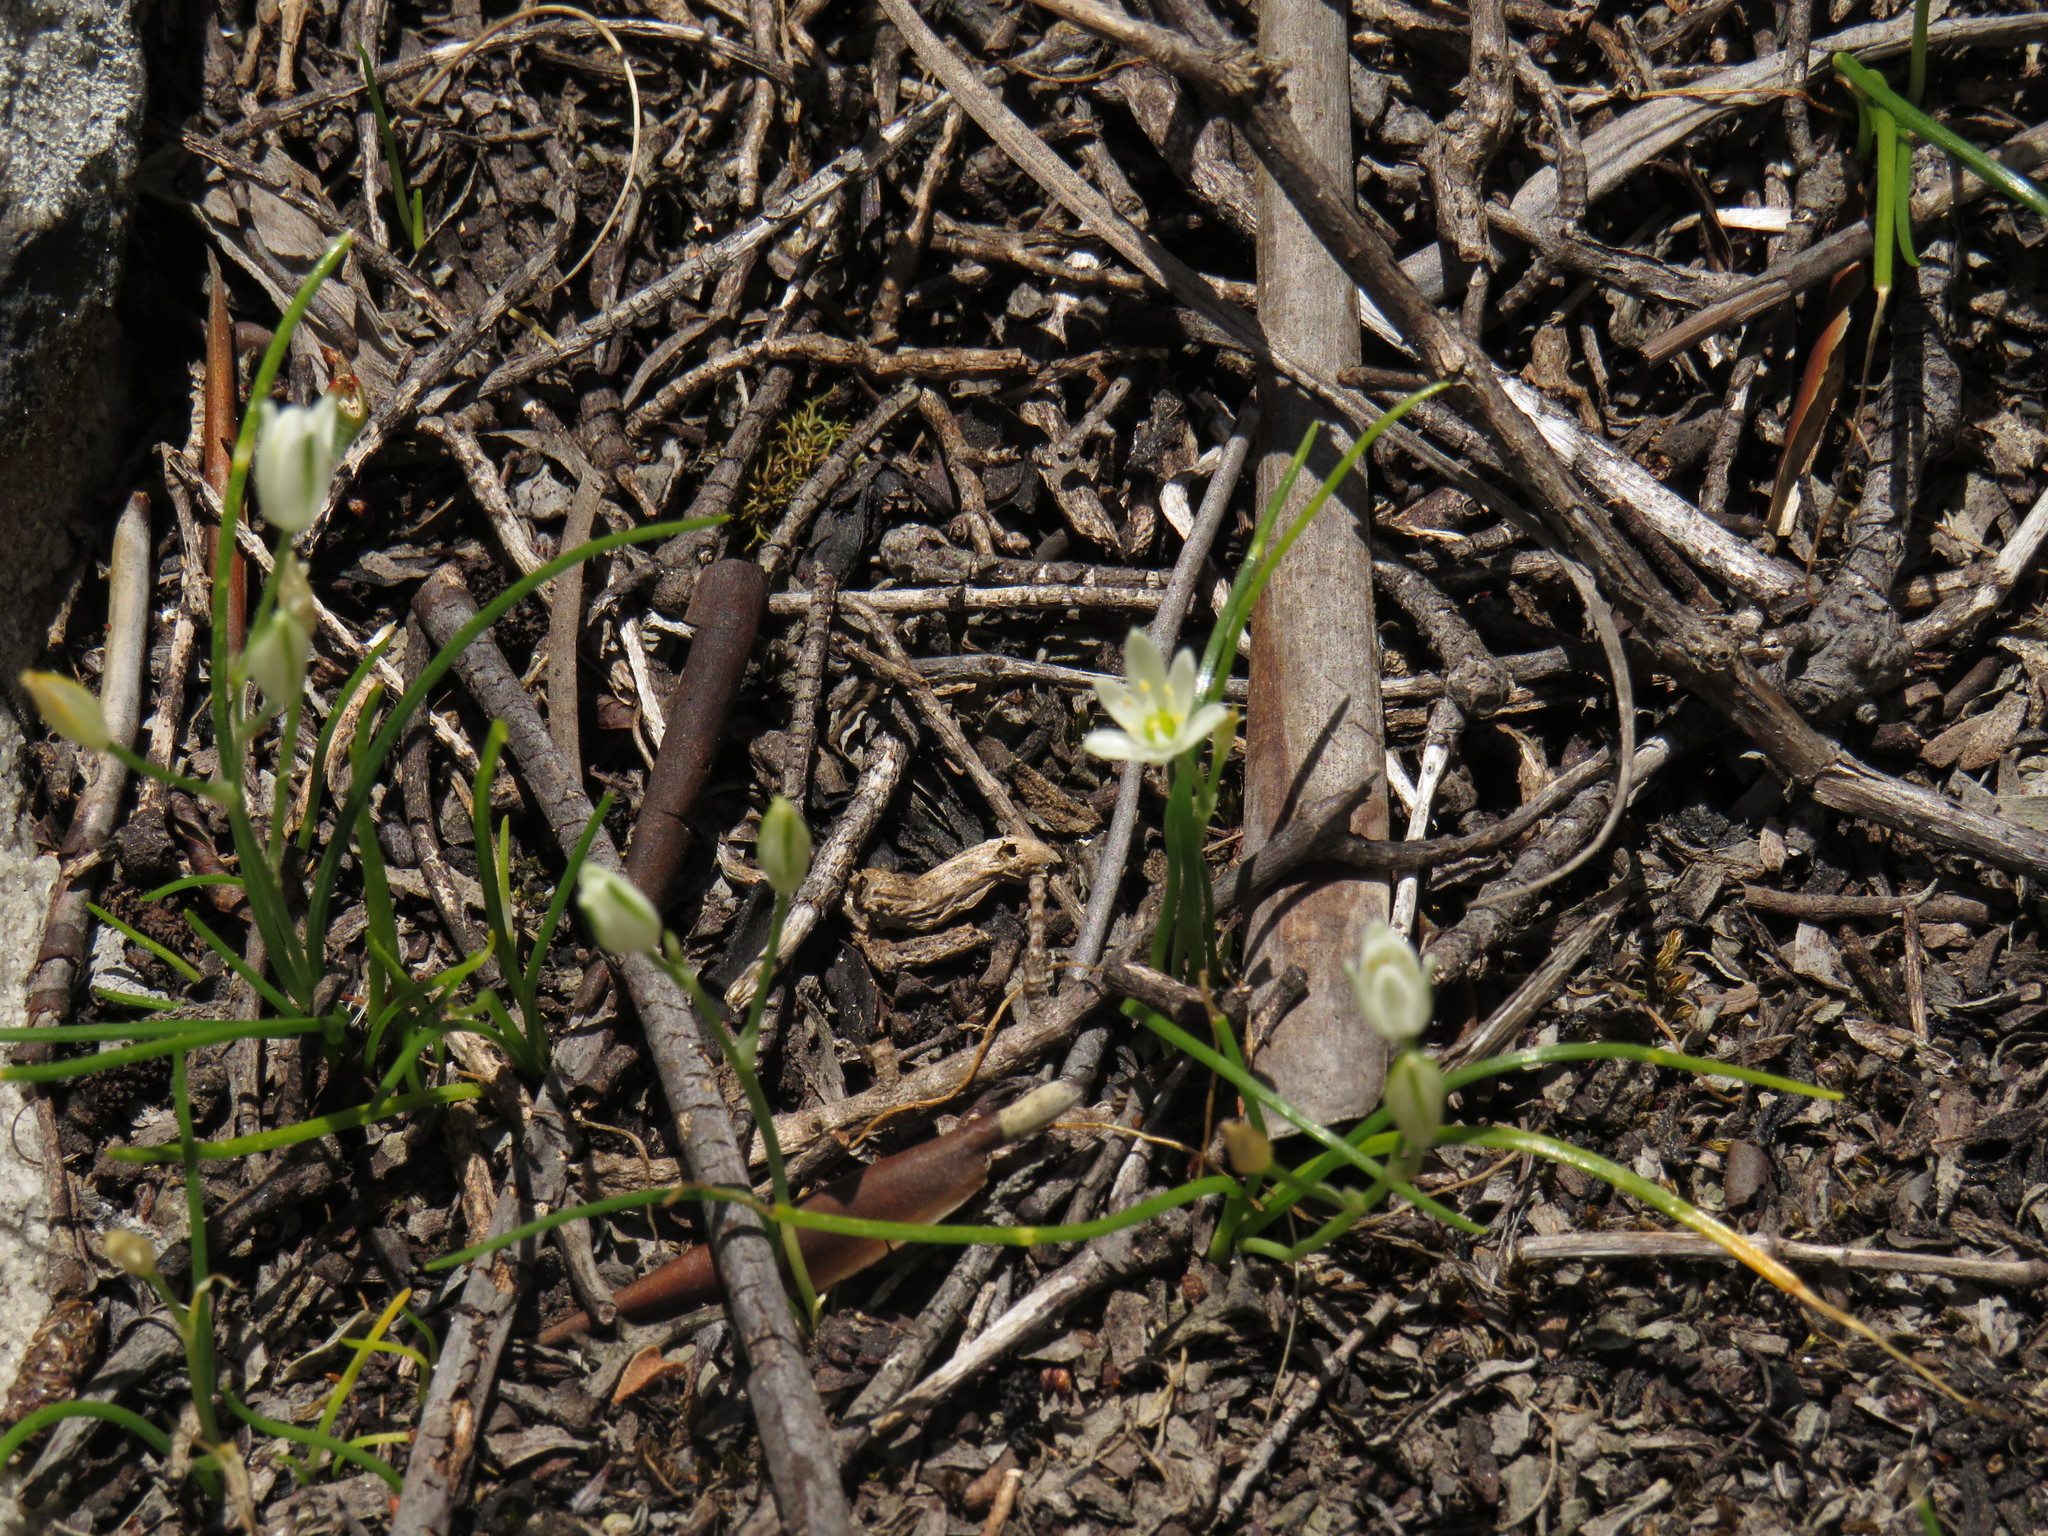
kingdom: Plantae
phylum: Tracheophyta
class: Liliopsida
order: Asparagales
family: Asparagaceae
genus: Ornithogalum
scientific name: Ornithogalum niveum
